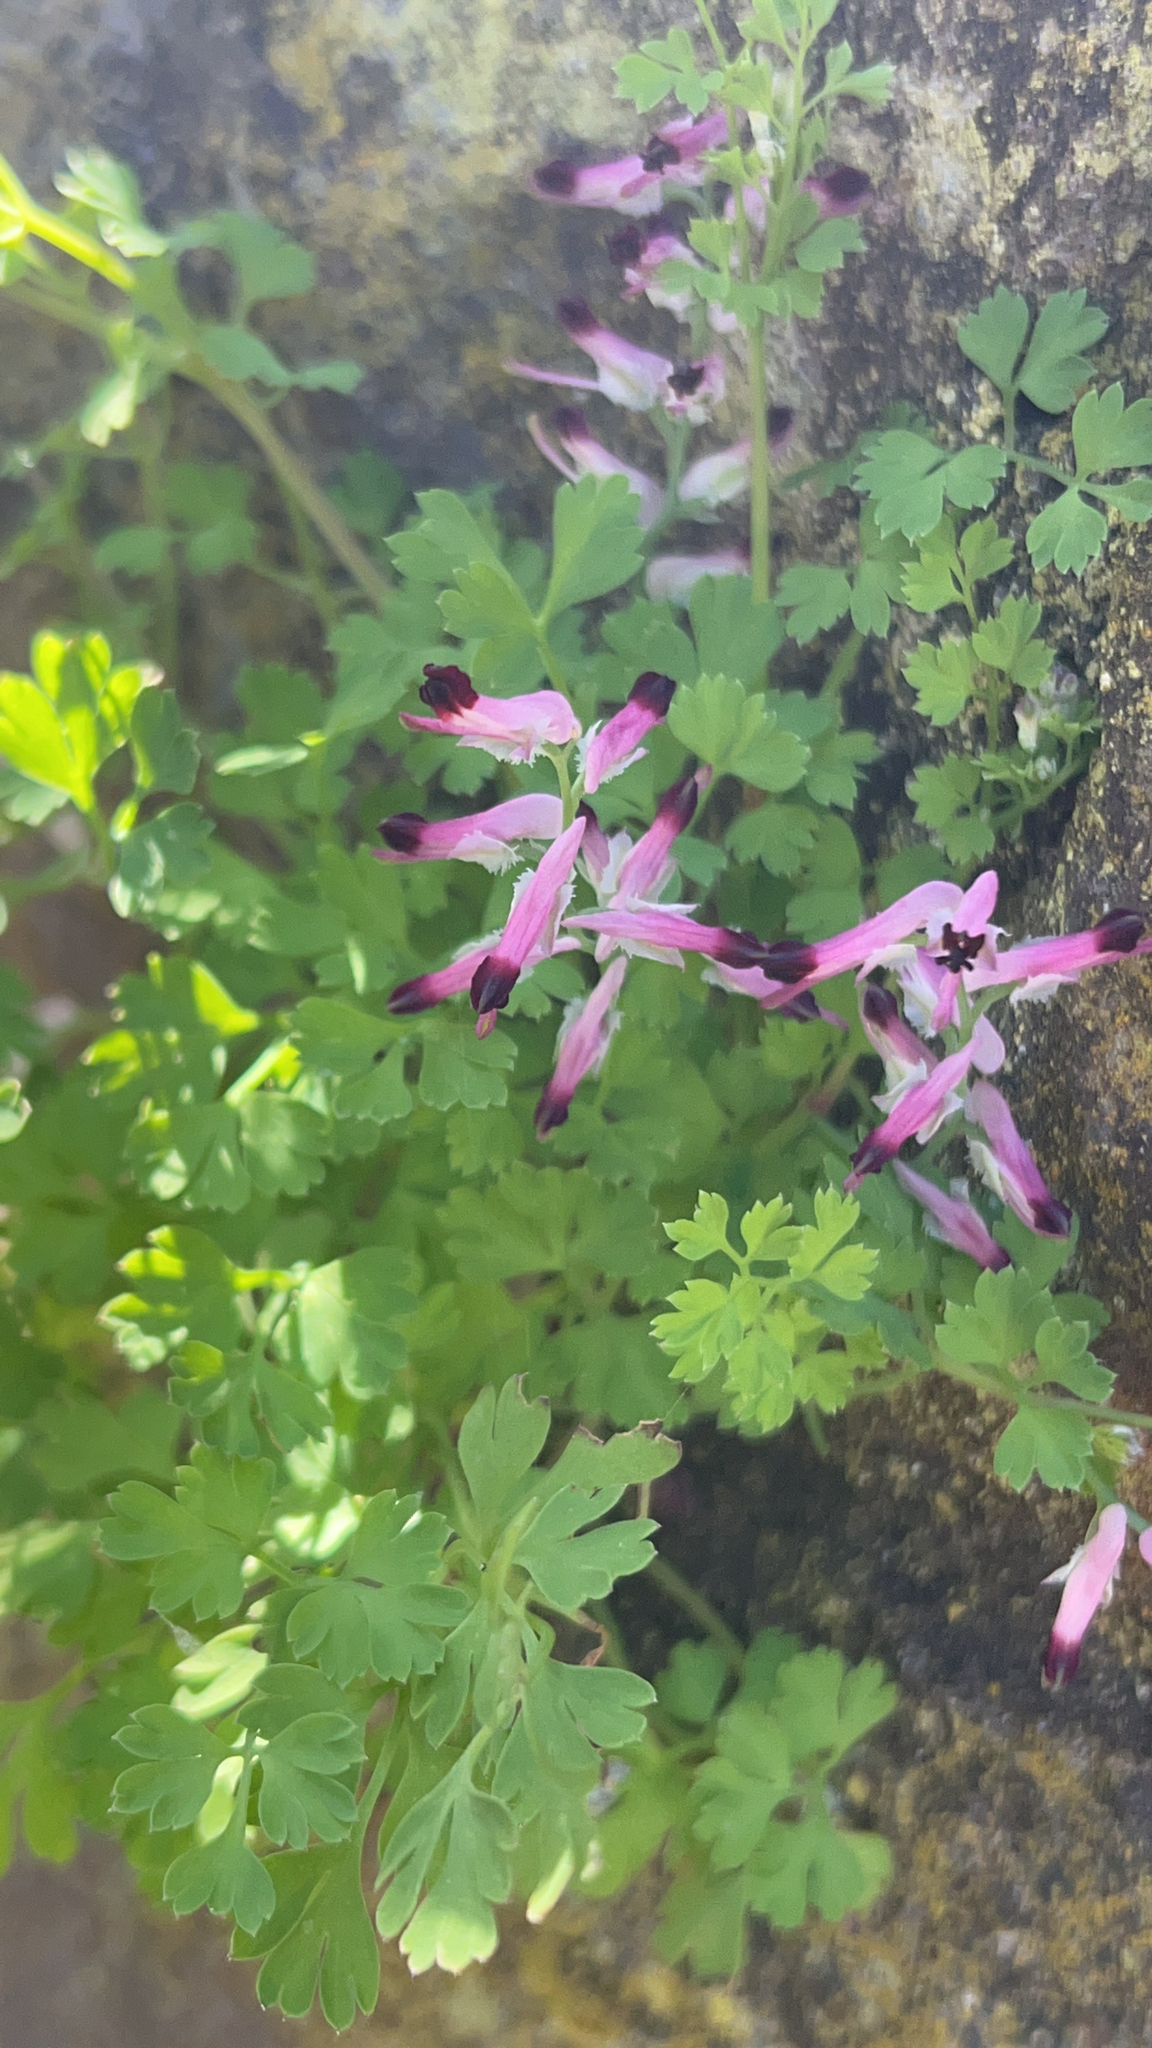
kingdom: Plantae
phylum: Tracheophyta
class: Magnoliopsida
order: Ranunculales
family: Papaveraceae
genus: Fumaria
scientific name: Fumaria muralis
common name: Common ramping-fumitory
